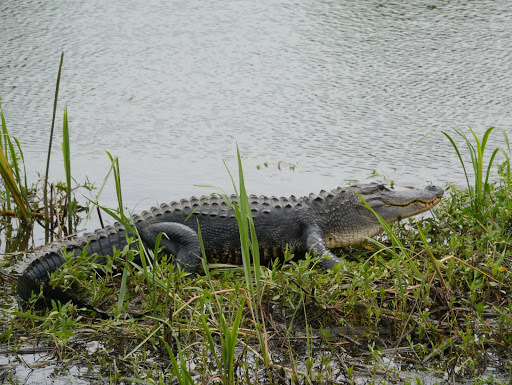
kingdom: Animalia
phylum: Chordata
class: Crocodylia
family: Alligatoridae
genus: Alligator
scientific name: Alligator mississippiensis
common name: American alligator
